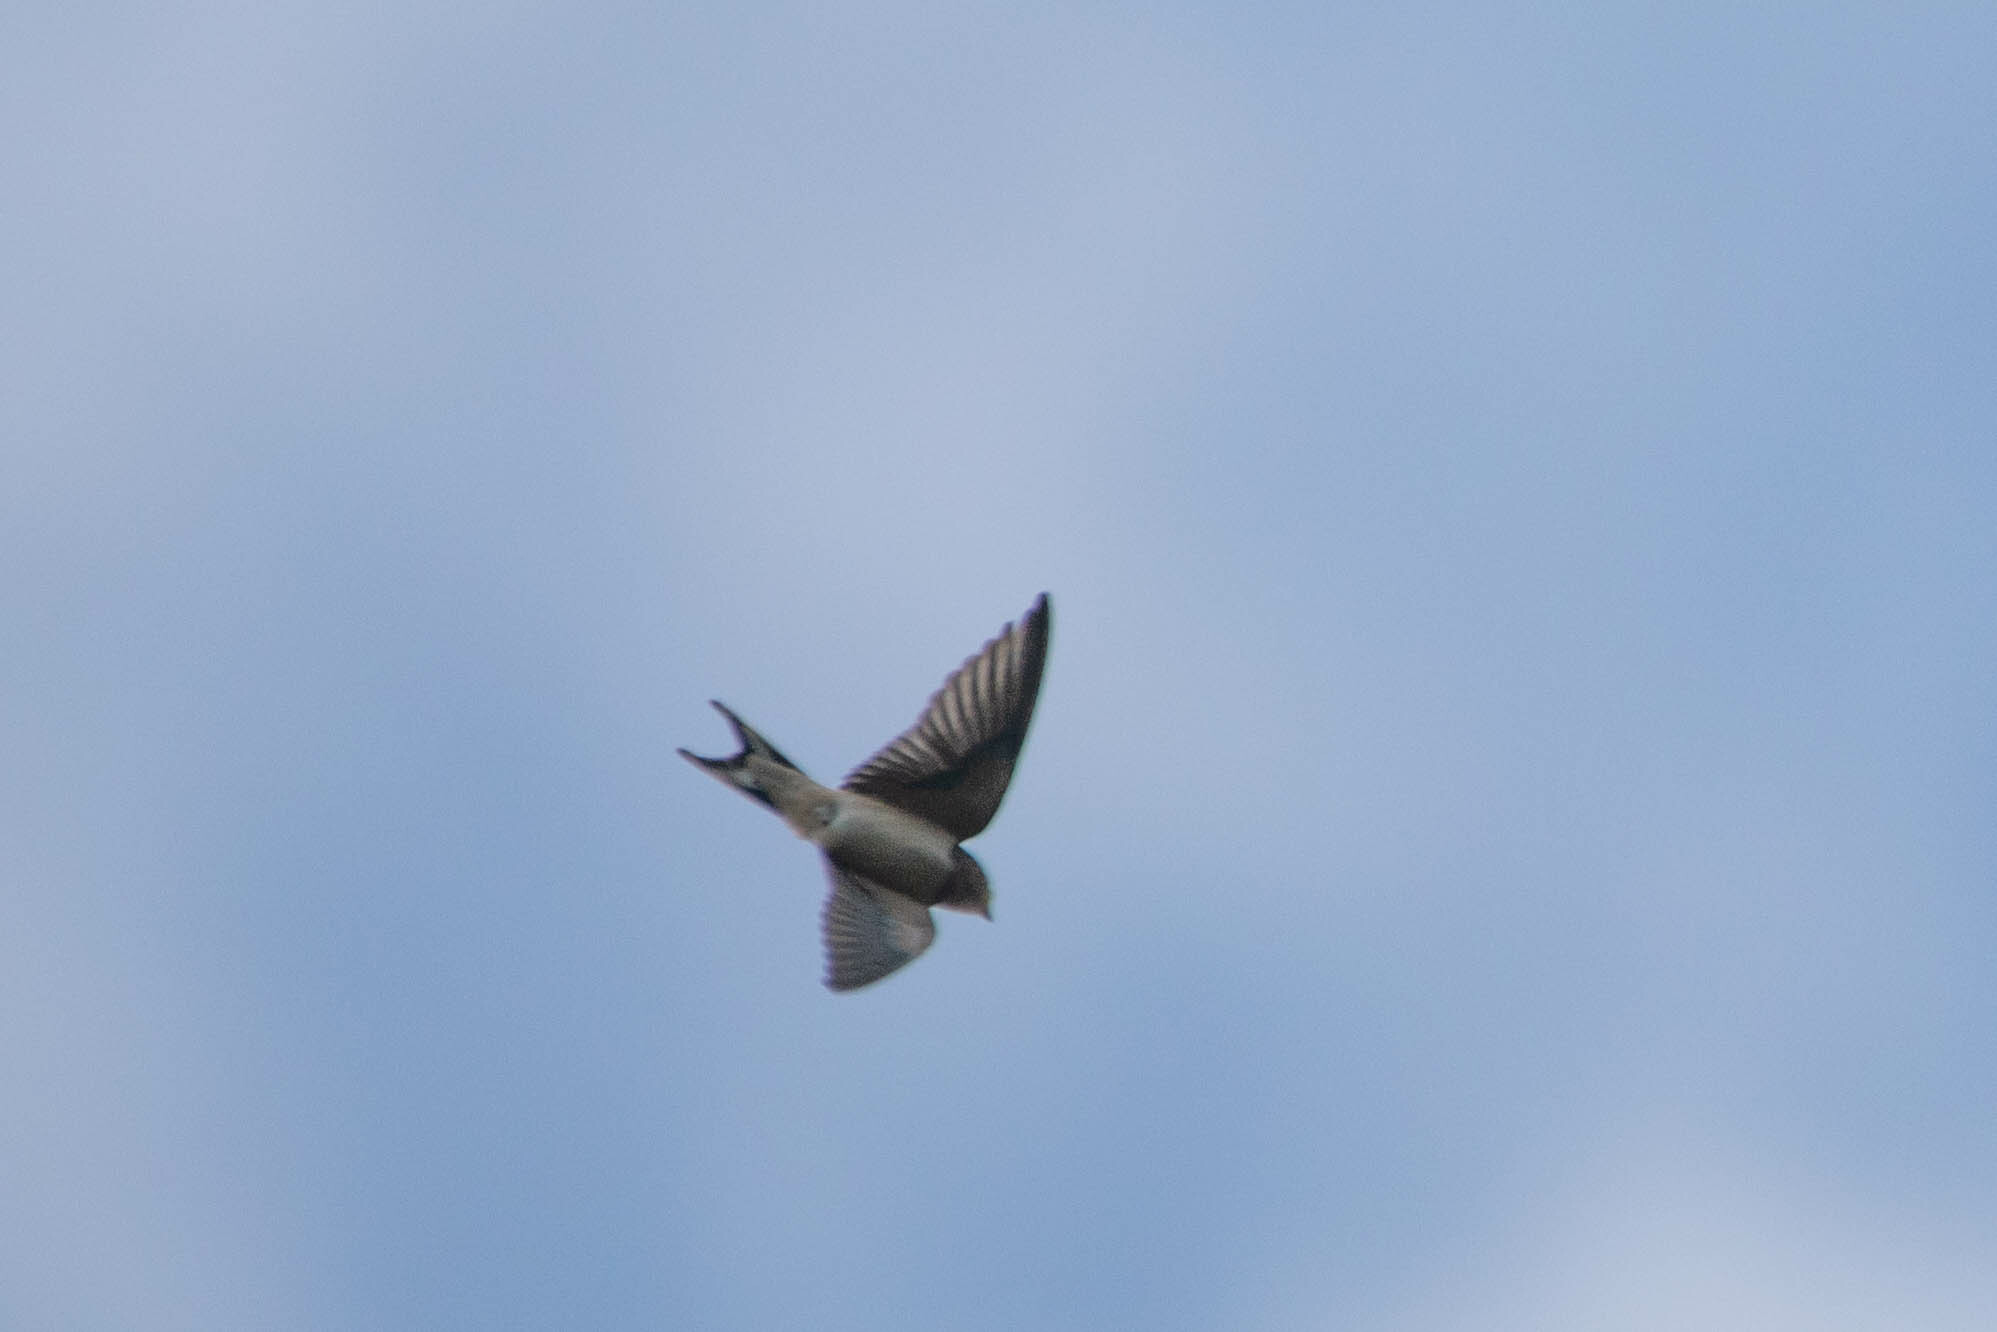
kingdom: Animalia
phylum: Chordata
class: Aves
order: Passeriformes
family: Hirundinidae
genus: Hirundo
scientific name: Hirundo rustica
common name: Barn swallow
